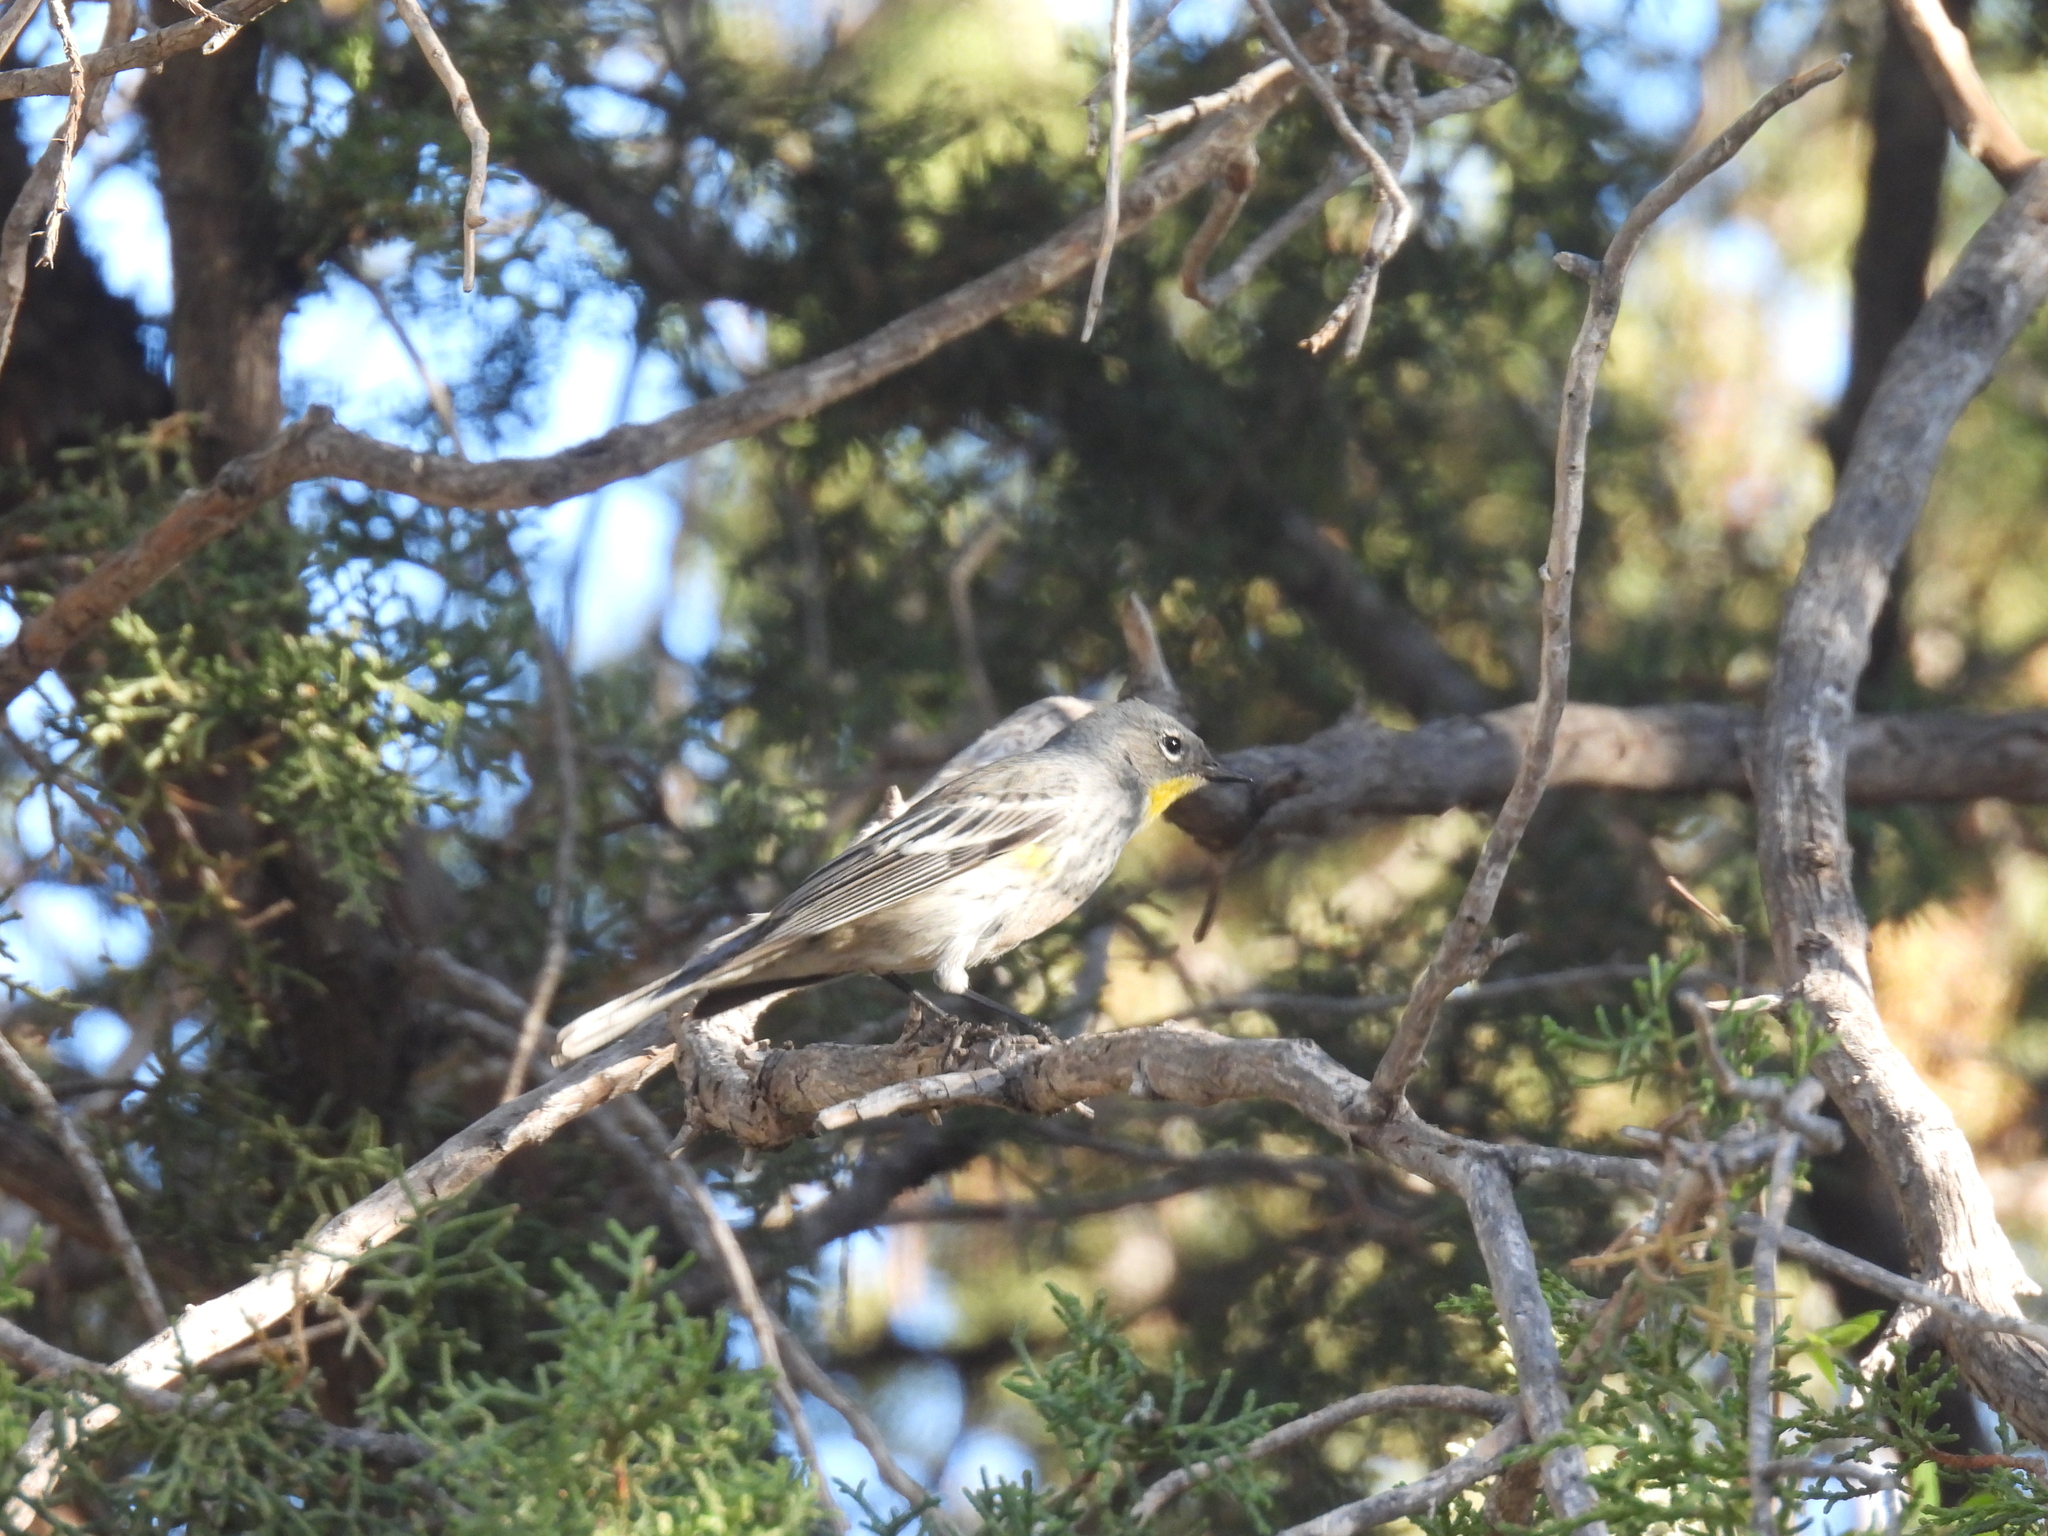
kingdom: Animalia
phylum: Chordata
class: Aves
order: Passeriformes
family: Parulidae
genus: Setophaga
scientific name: Setophaga auduboni
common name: Audubon's warbler
